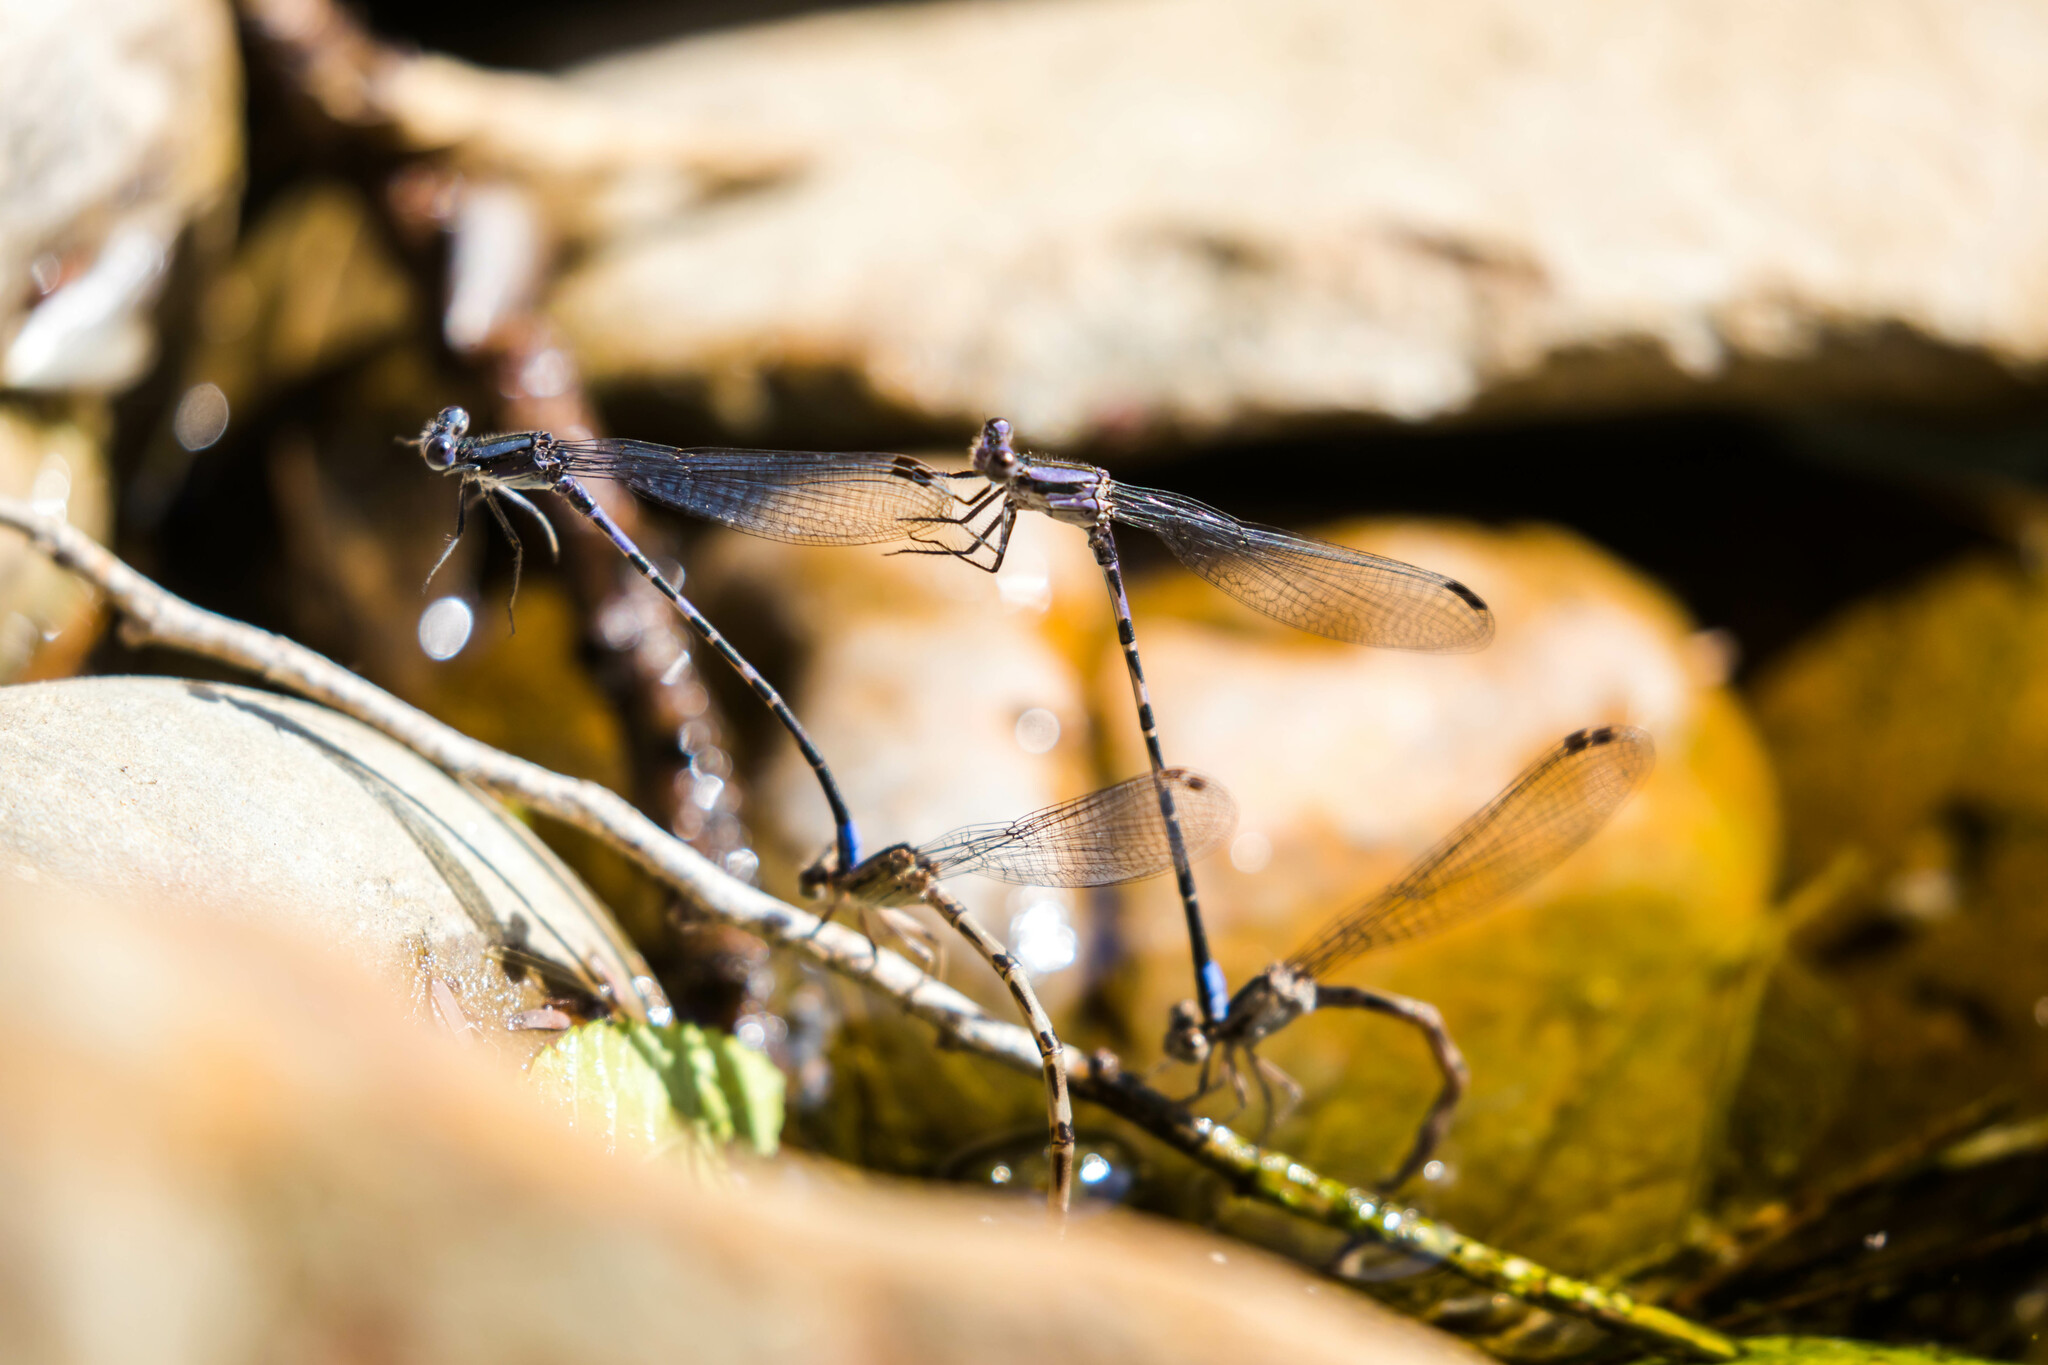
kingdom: Animalia
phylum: Arthropoda
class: Insecta
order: Odonata
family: Coenagrionidae
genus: Argia
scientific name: Argia immunda
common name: Kiowa dancer
